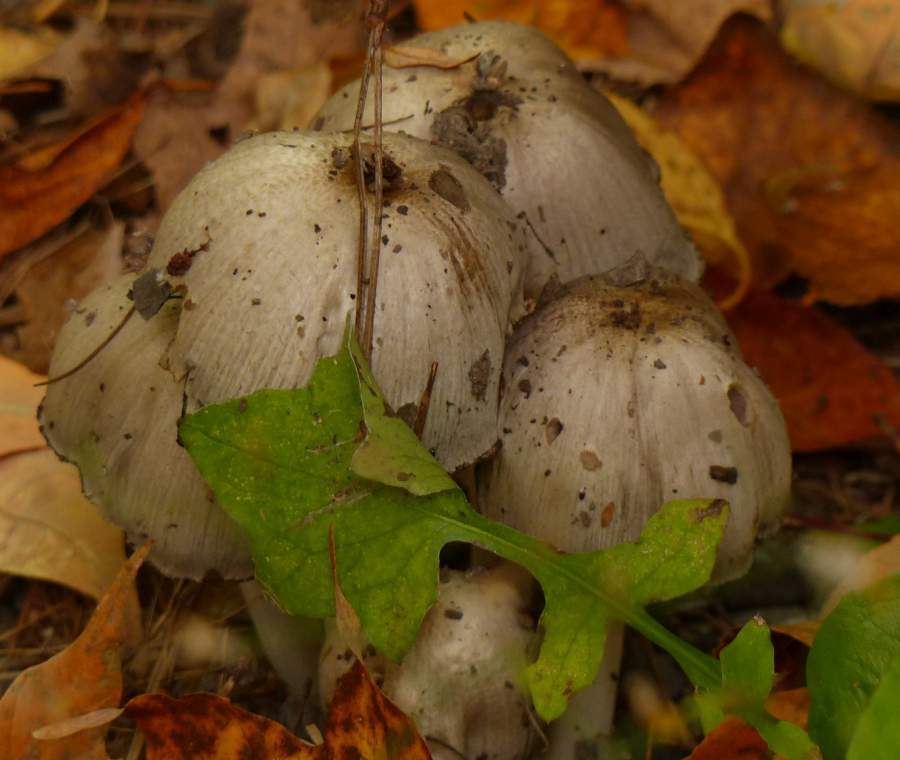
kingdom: Fungi
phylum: Basidiomycota
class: Agaricomycetes
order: Agaricales
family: Psathyrellaceae
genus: Coprinopsis
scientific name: Coprinopsis atramentaria
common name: Common ink-cap
